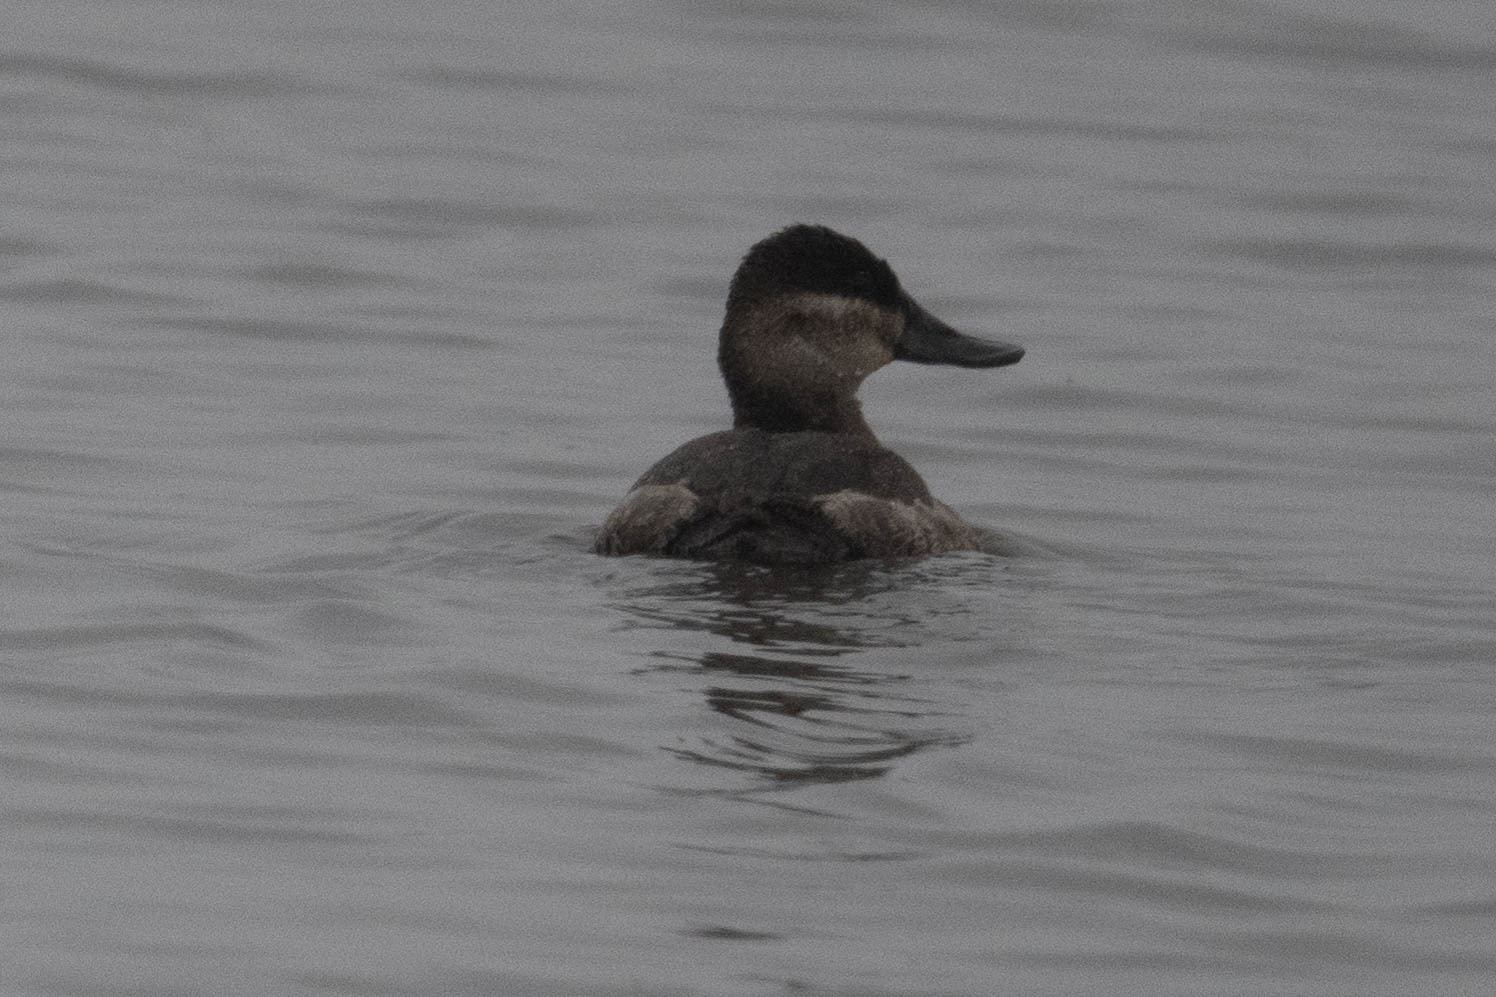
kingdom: Animalia
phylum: Chordata
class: Aves
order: Anseriformes
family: Anatidae
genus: Oxyura
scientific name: Oxyura jamaicensis
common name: Ruddy duck
